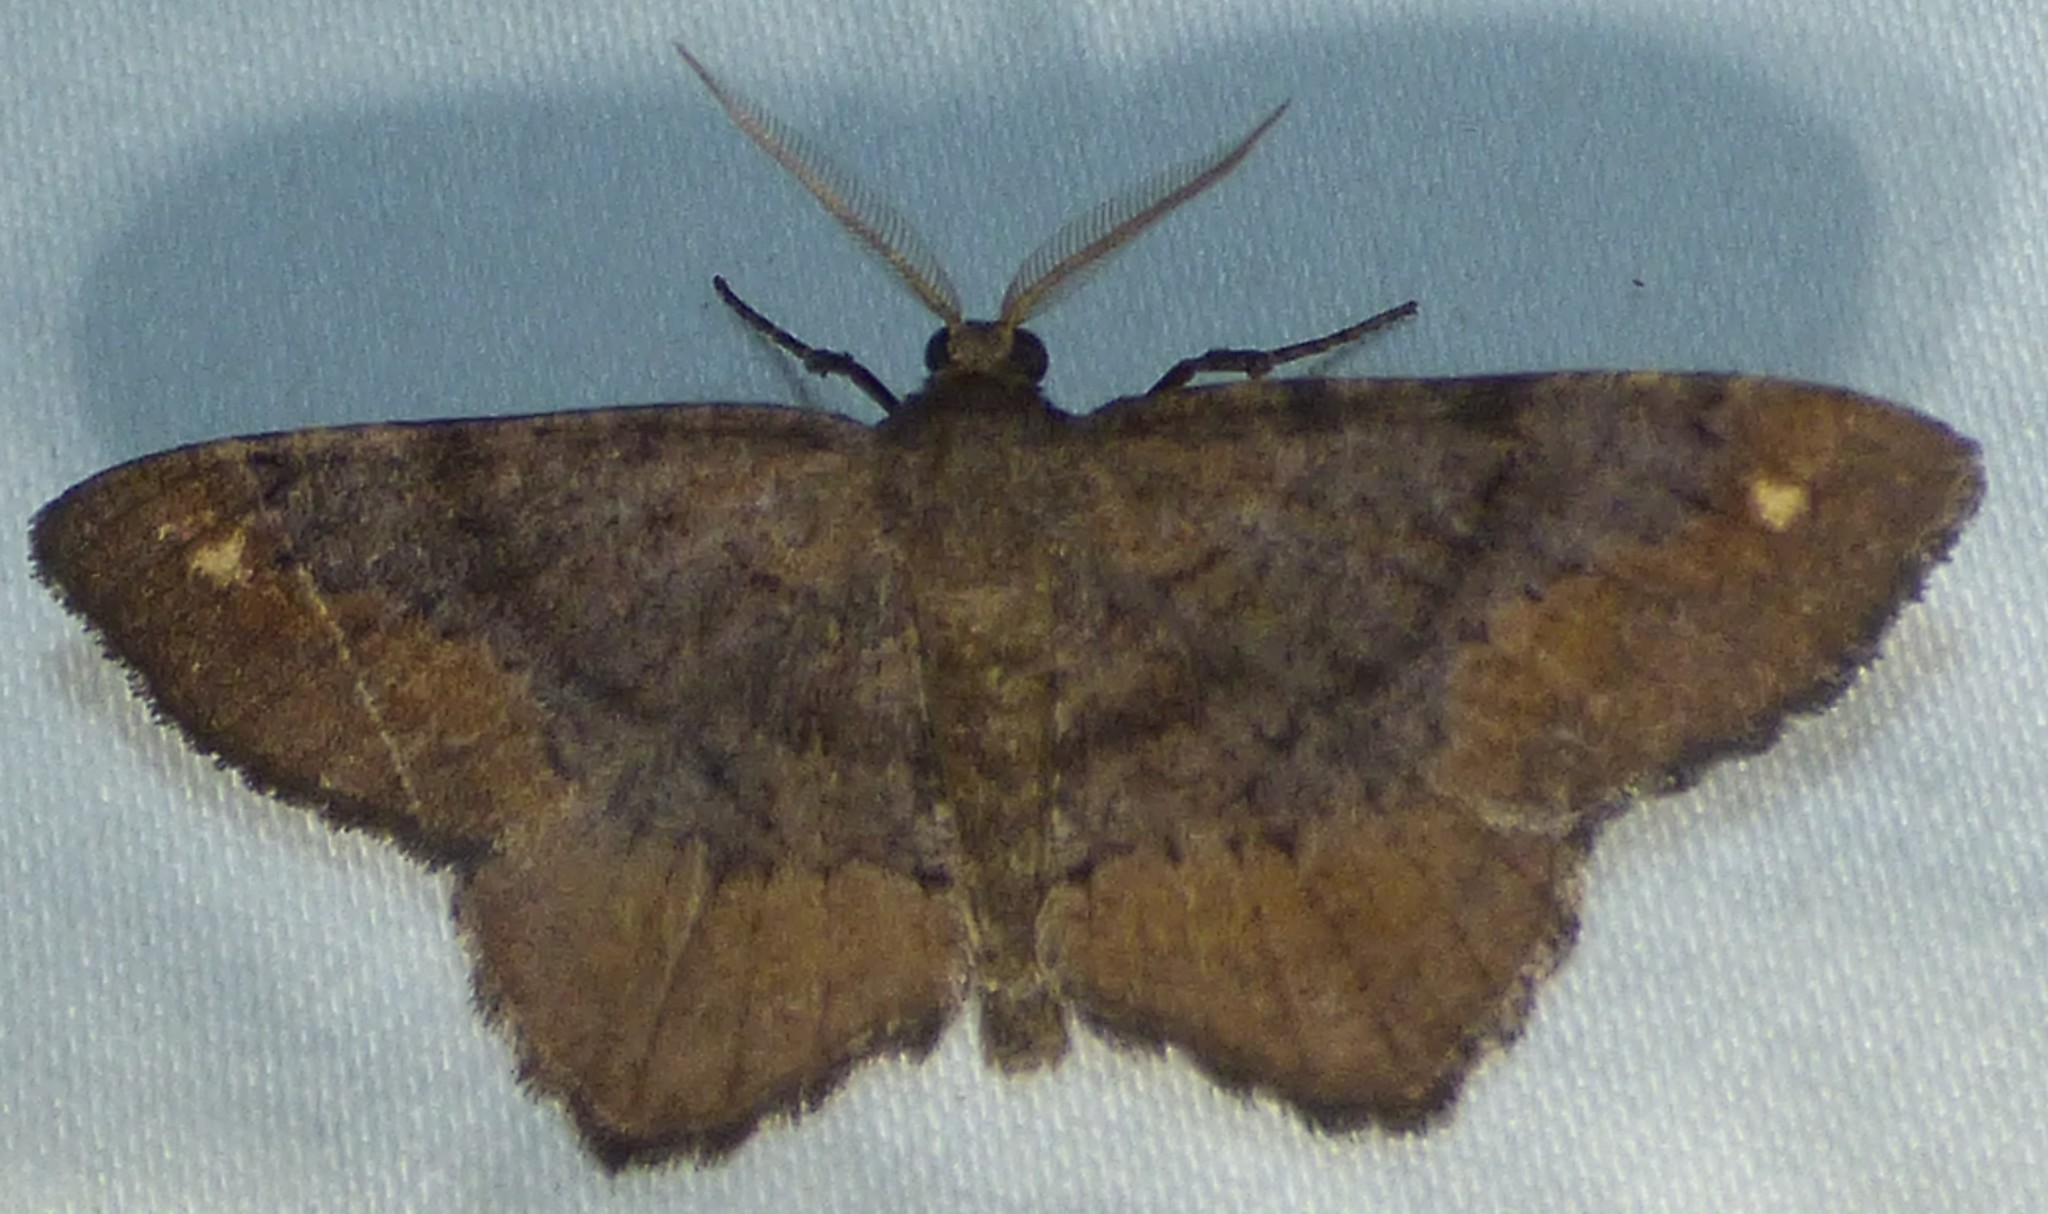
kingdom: Animalia
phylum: Arthropoda
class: Insecta
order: Lepidoptera
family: Geometridae
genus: Hypagyrtis
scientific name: Hypagyrtis esther
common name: Esther moth
